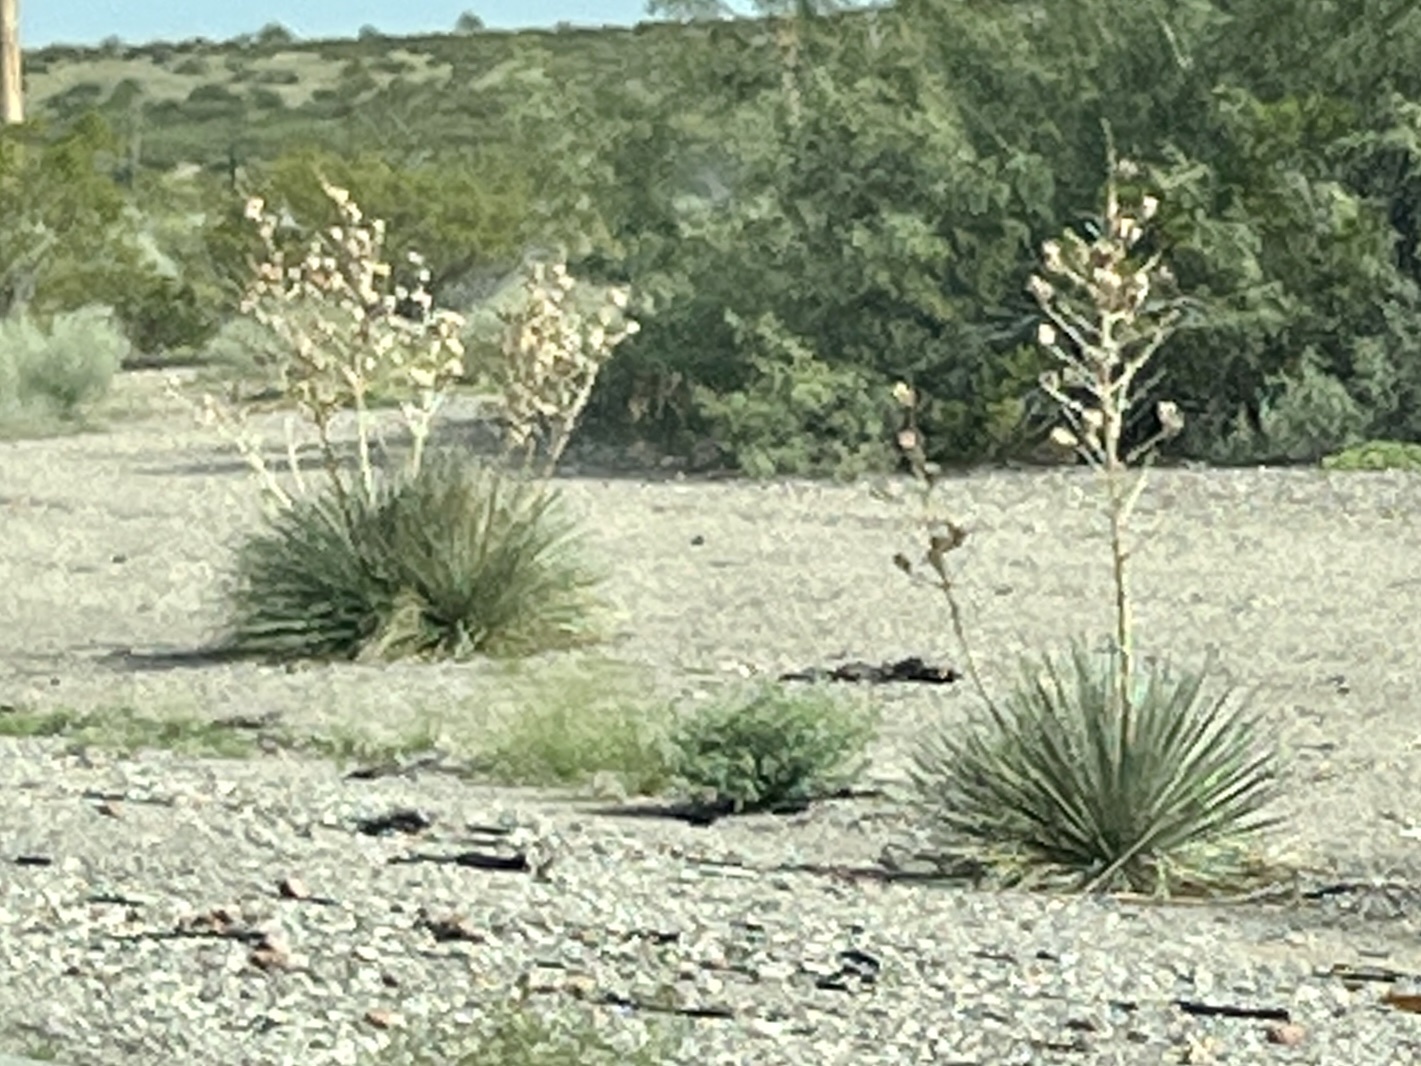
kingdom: Plantae
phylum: Tracheophyta
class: Liliopsida
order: Asparagales
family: Asparagaceae
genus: Yucca
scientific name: Yucca elata
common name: Palmella
